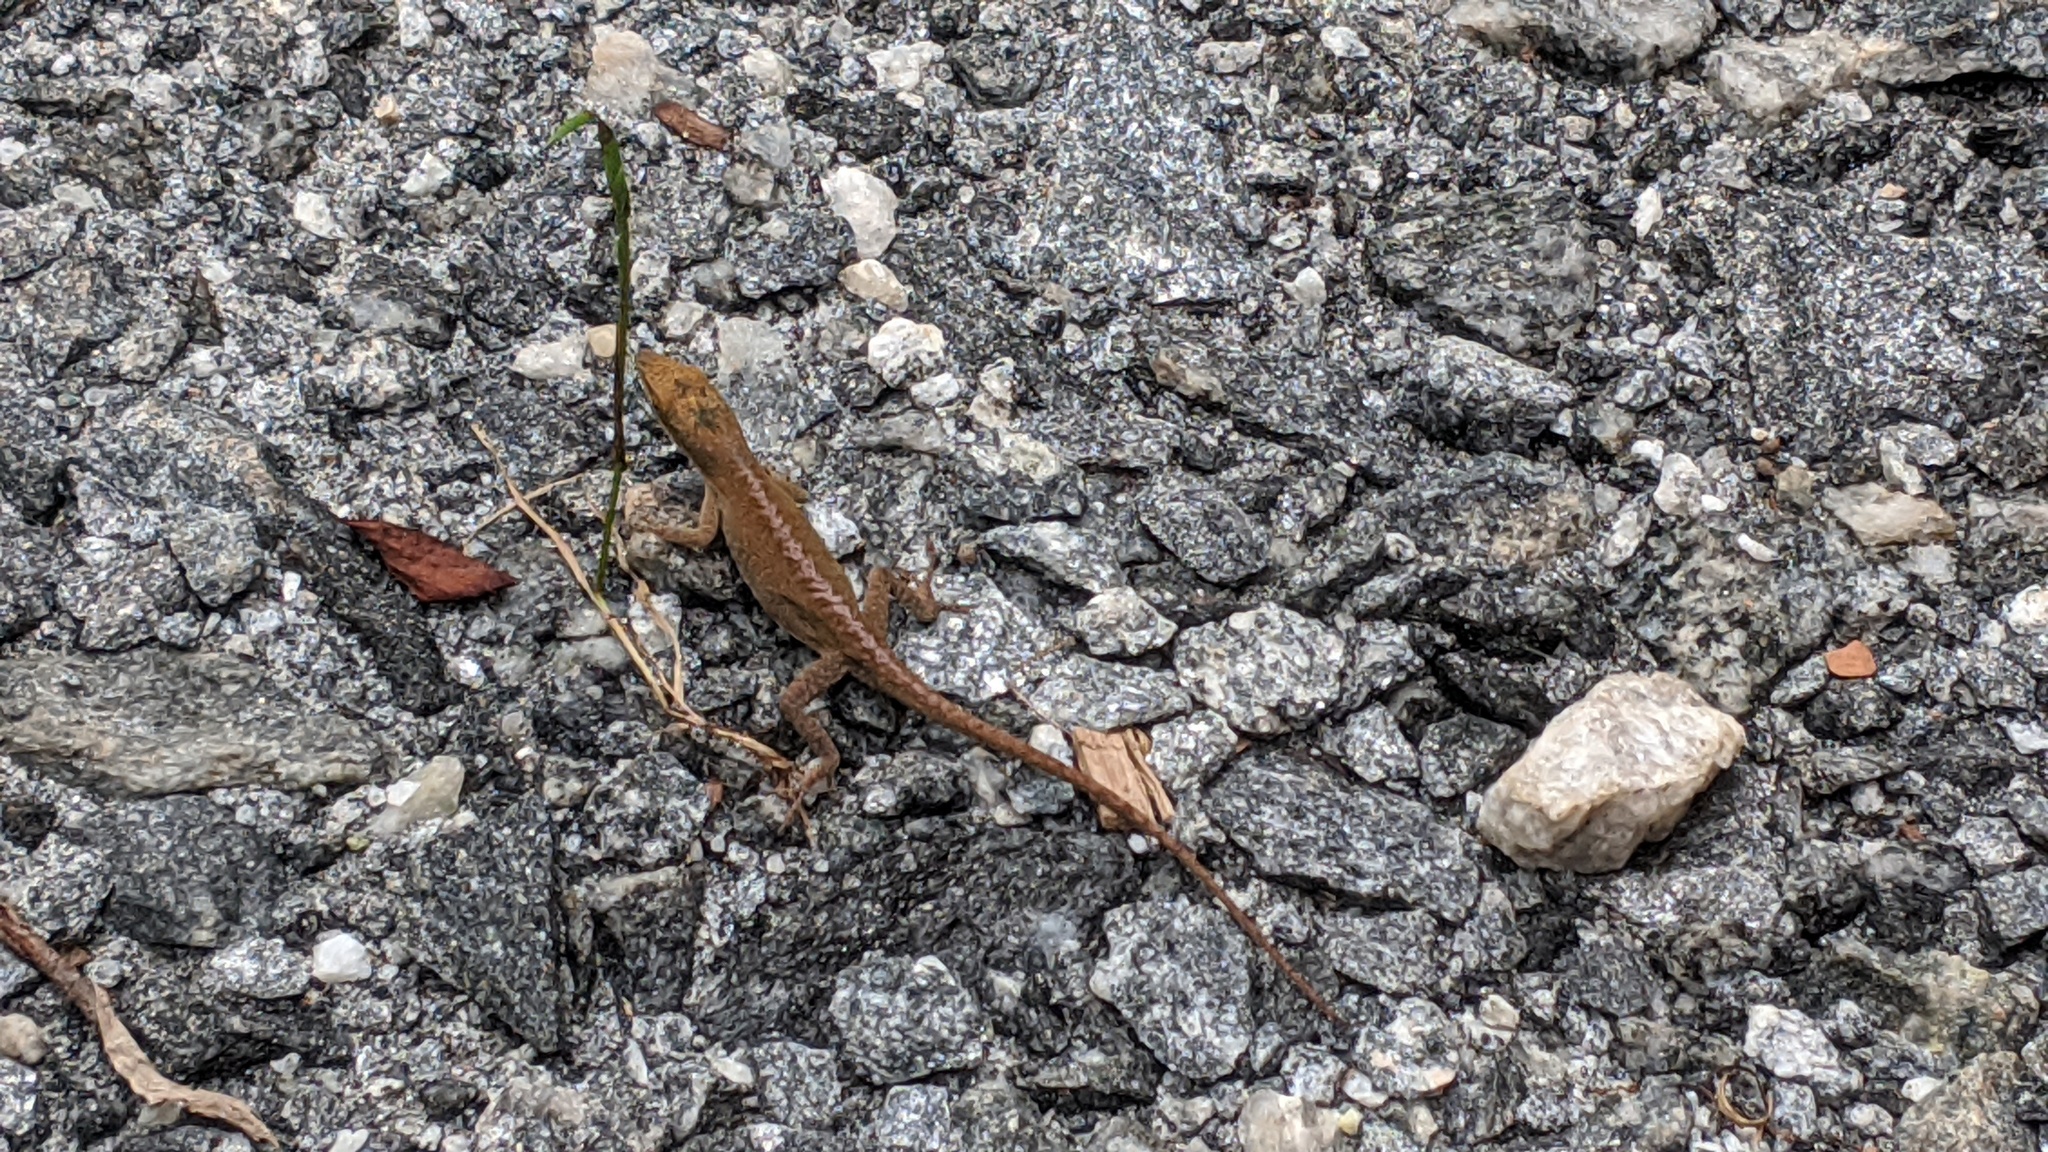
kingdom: Animalia
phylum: Chordata
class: Squamata
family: Dactyloidae
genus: Anolis
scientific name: Anolis carolinensis
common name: Green anole
